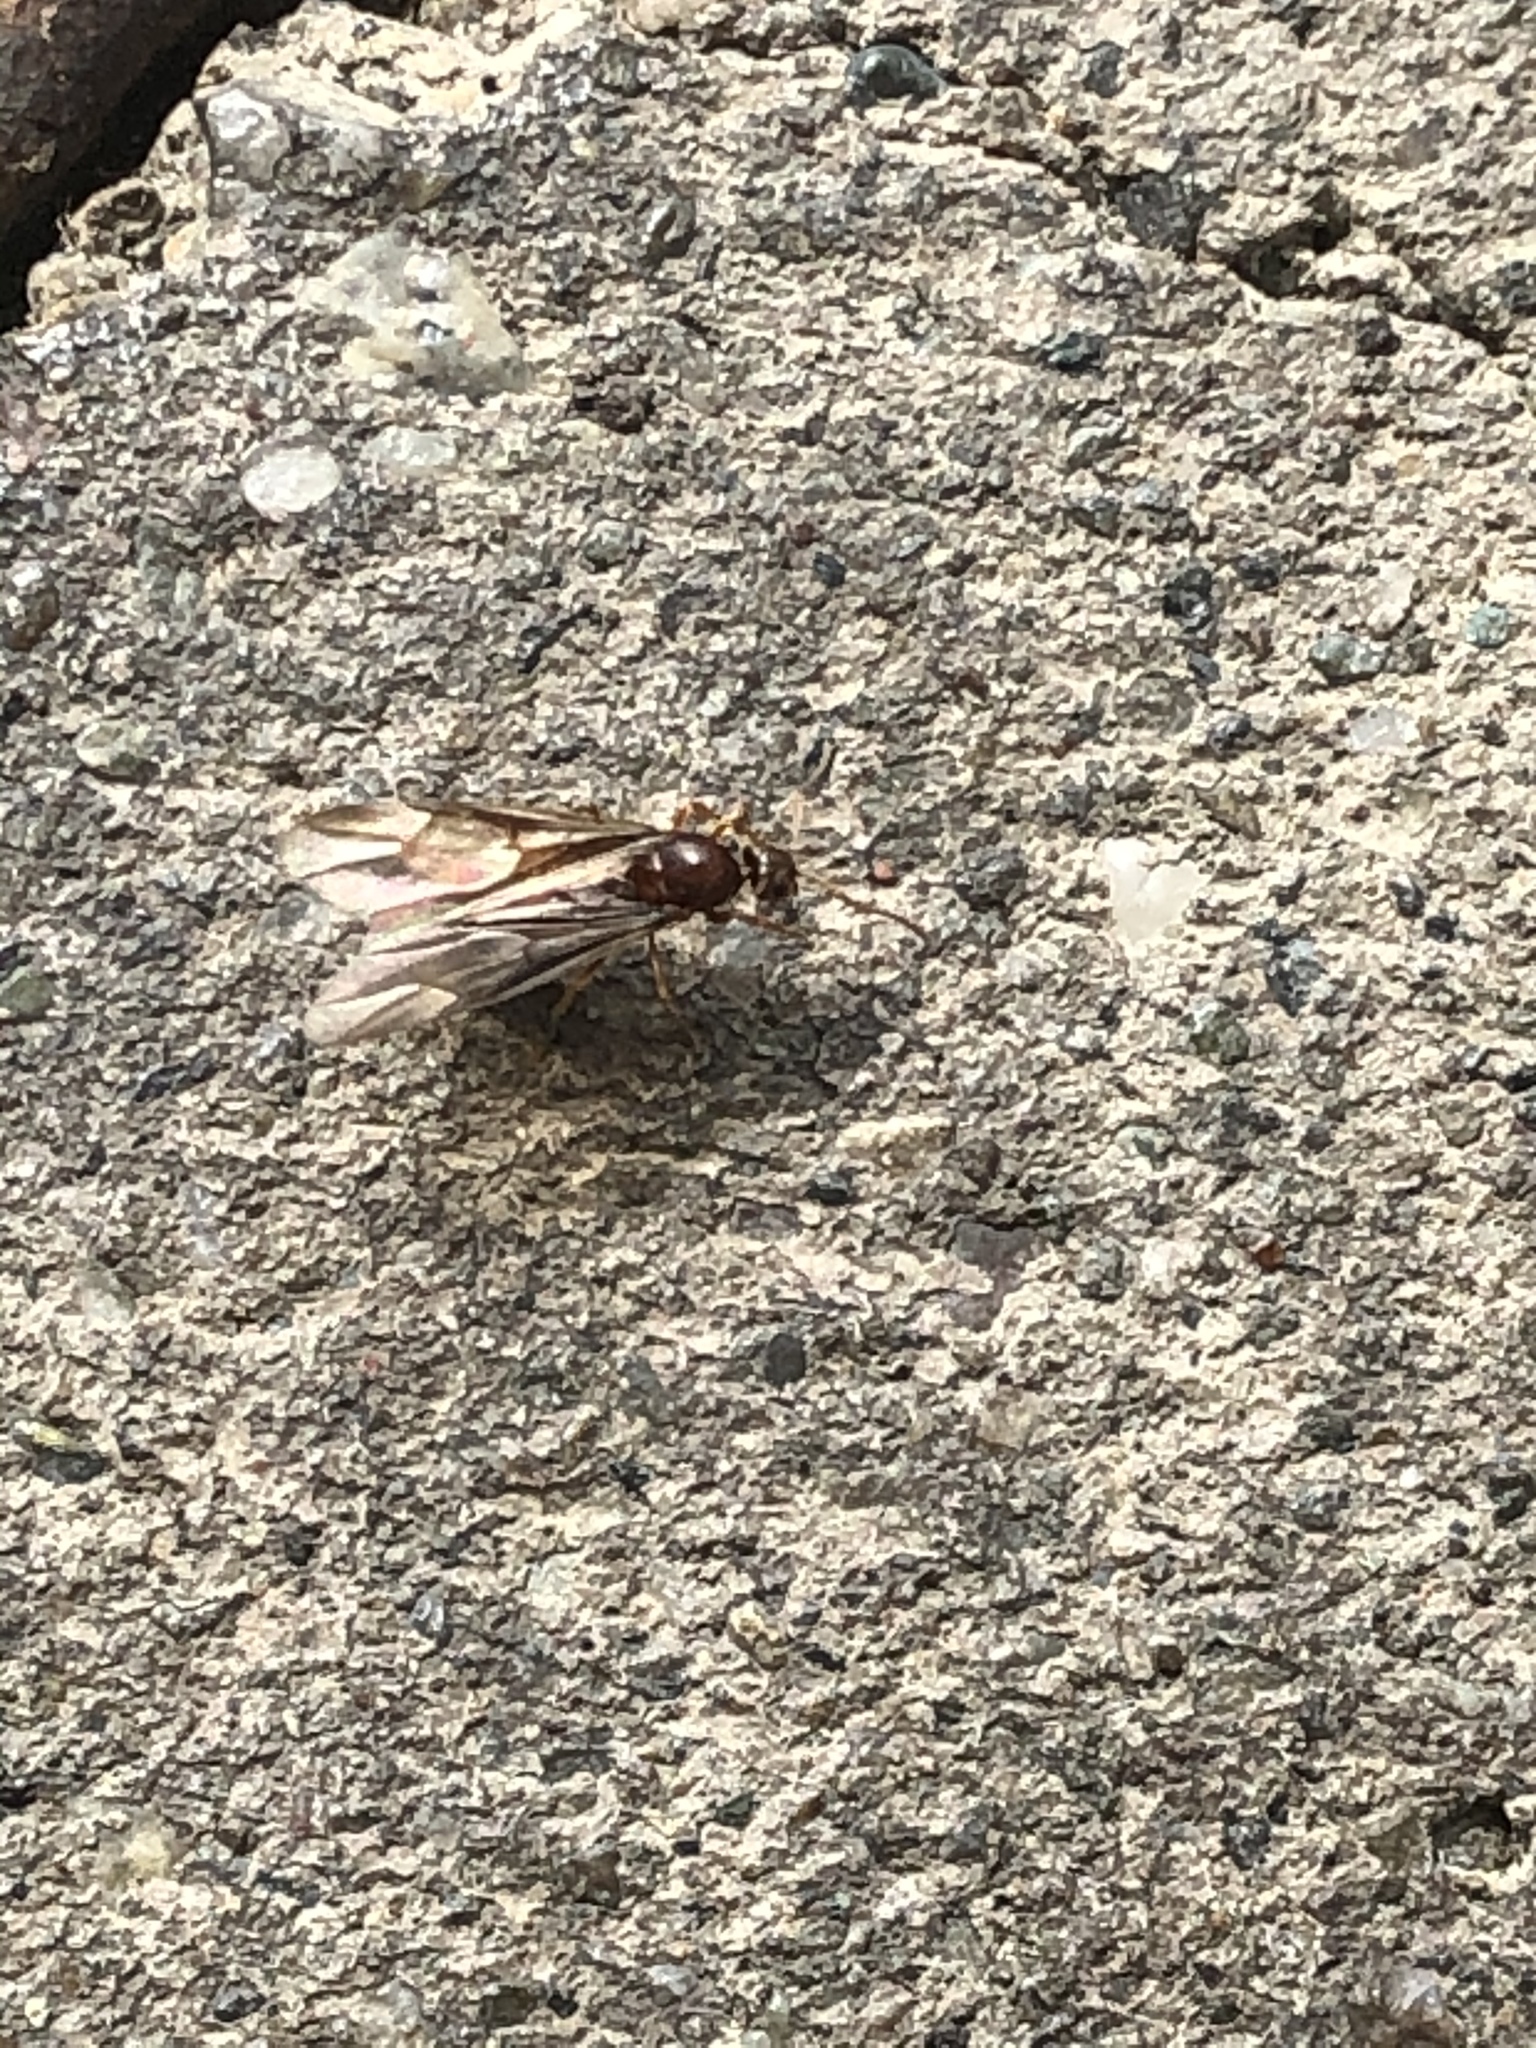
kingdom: Animalia
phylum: Arthropoda
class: Insecta
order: Hymenoptera
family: Formicidae
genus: Prenolepis
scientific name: Prenolepis imparis
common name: Small honey ant
